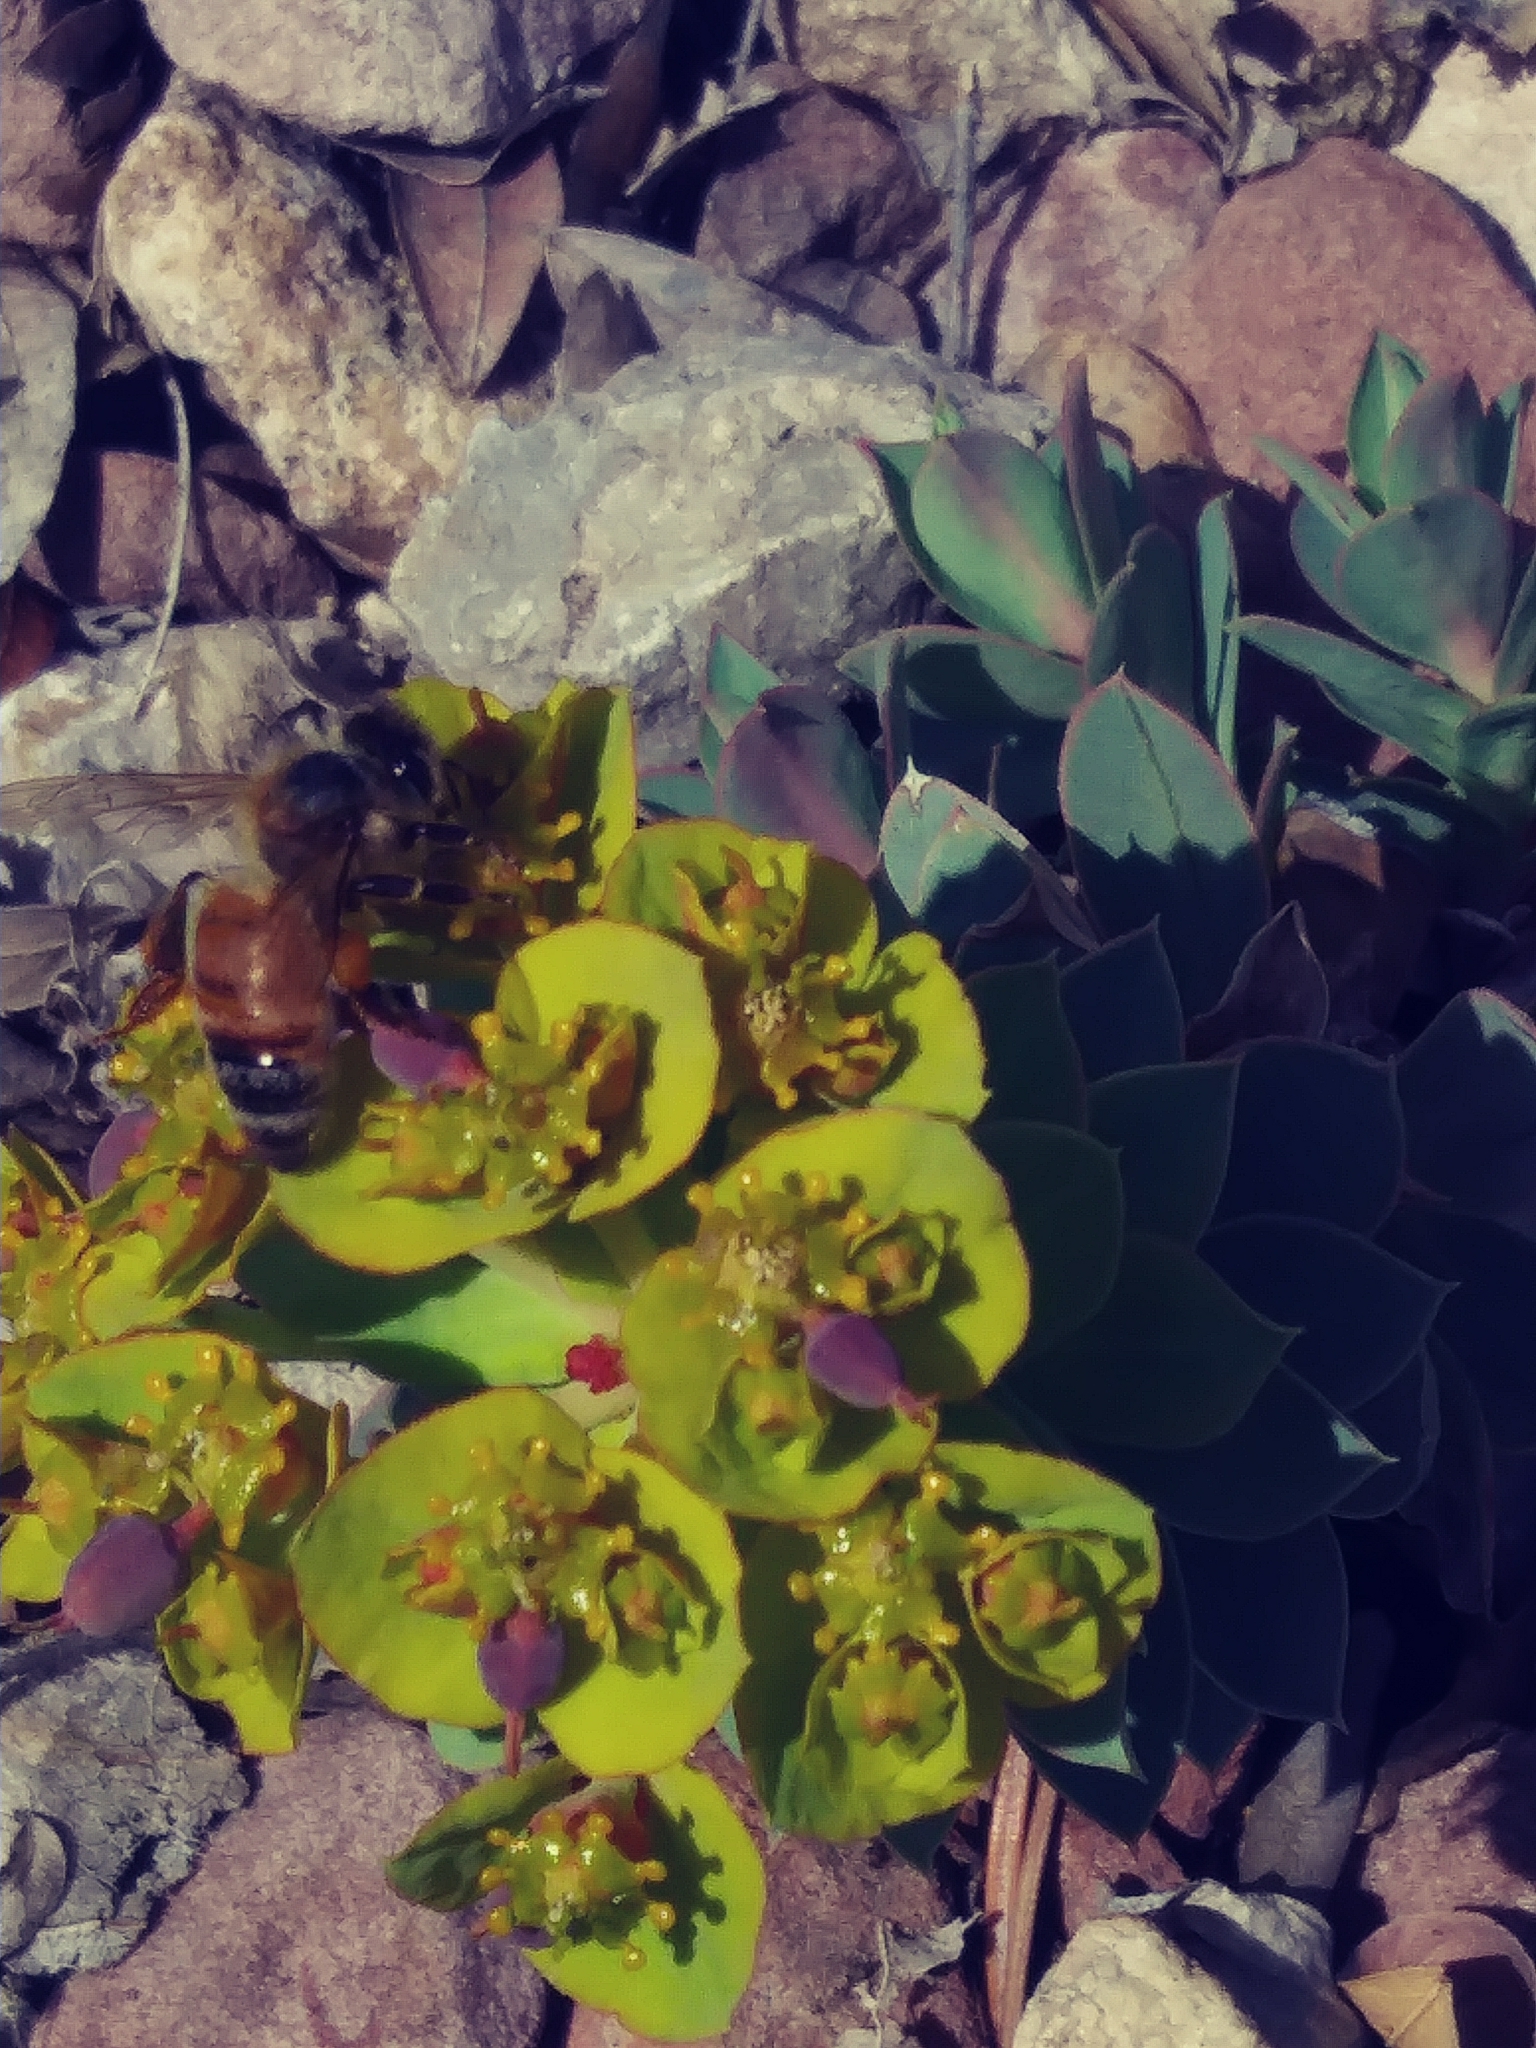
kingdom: Plantae
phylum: Tracheophyta
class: Magnoliopsida
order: Malpighiales
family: Euphorbiaceae
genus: Euphorbia
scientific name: Euphorbia myrsinites
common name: Myrtle spurge
